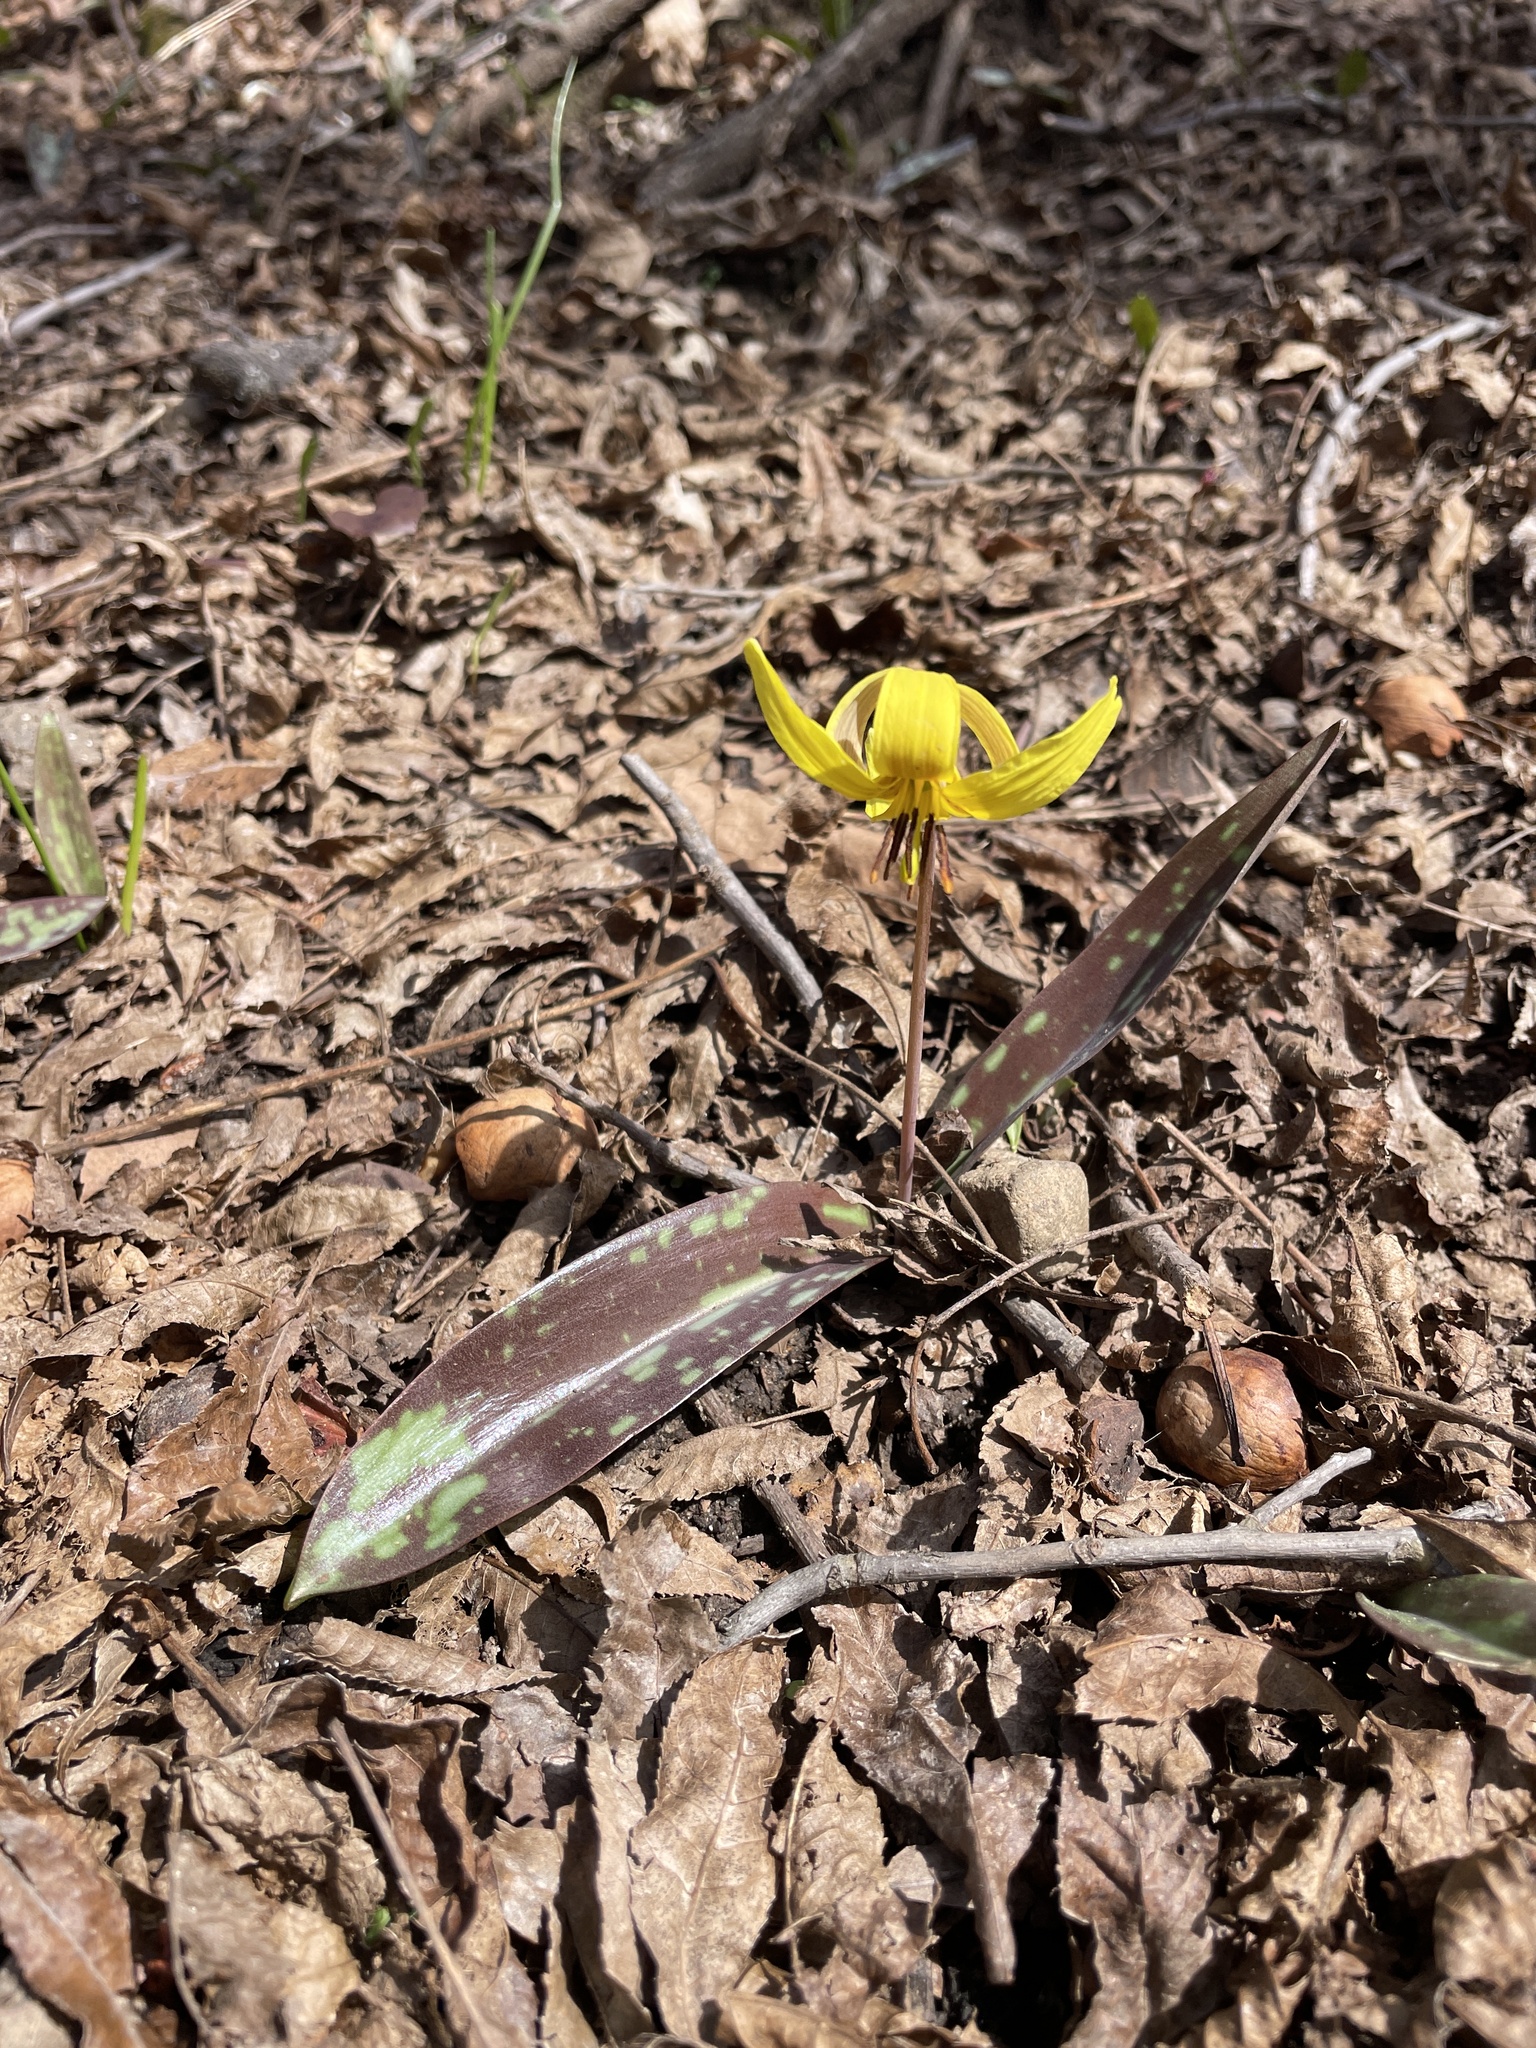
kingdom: Plantae
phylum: Tracheophyta
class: Liliopsida
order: Liliales
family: Liliaceae
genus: Erythronium
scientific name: Erythronium americanum
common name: Yellow adder's-tongue
